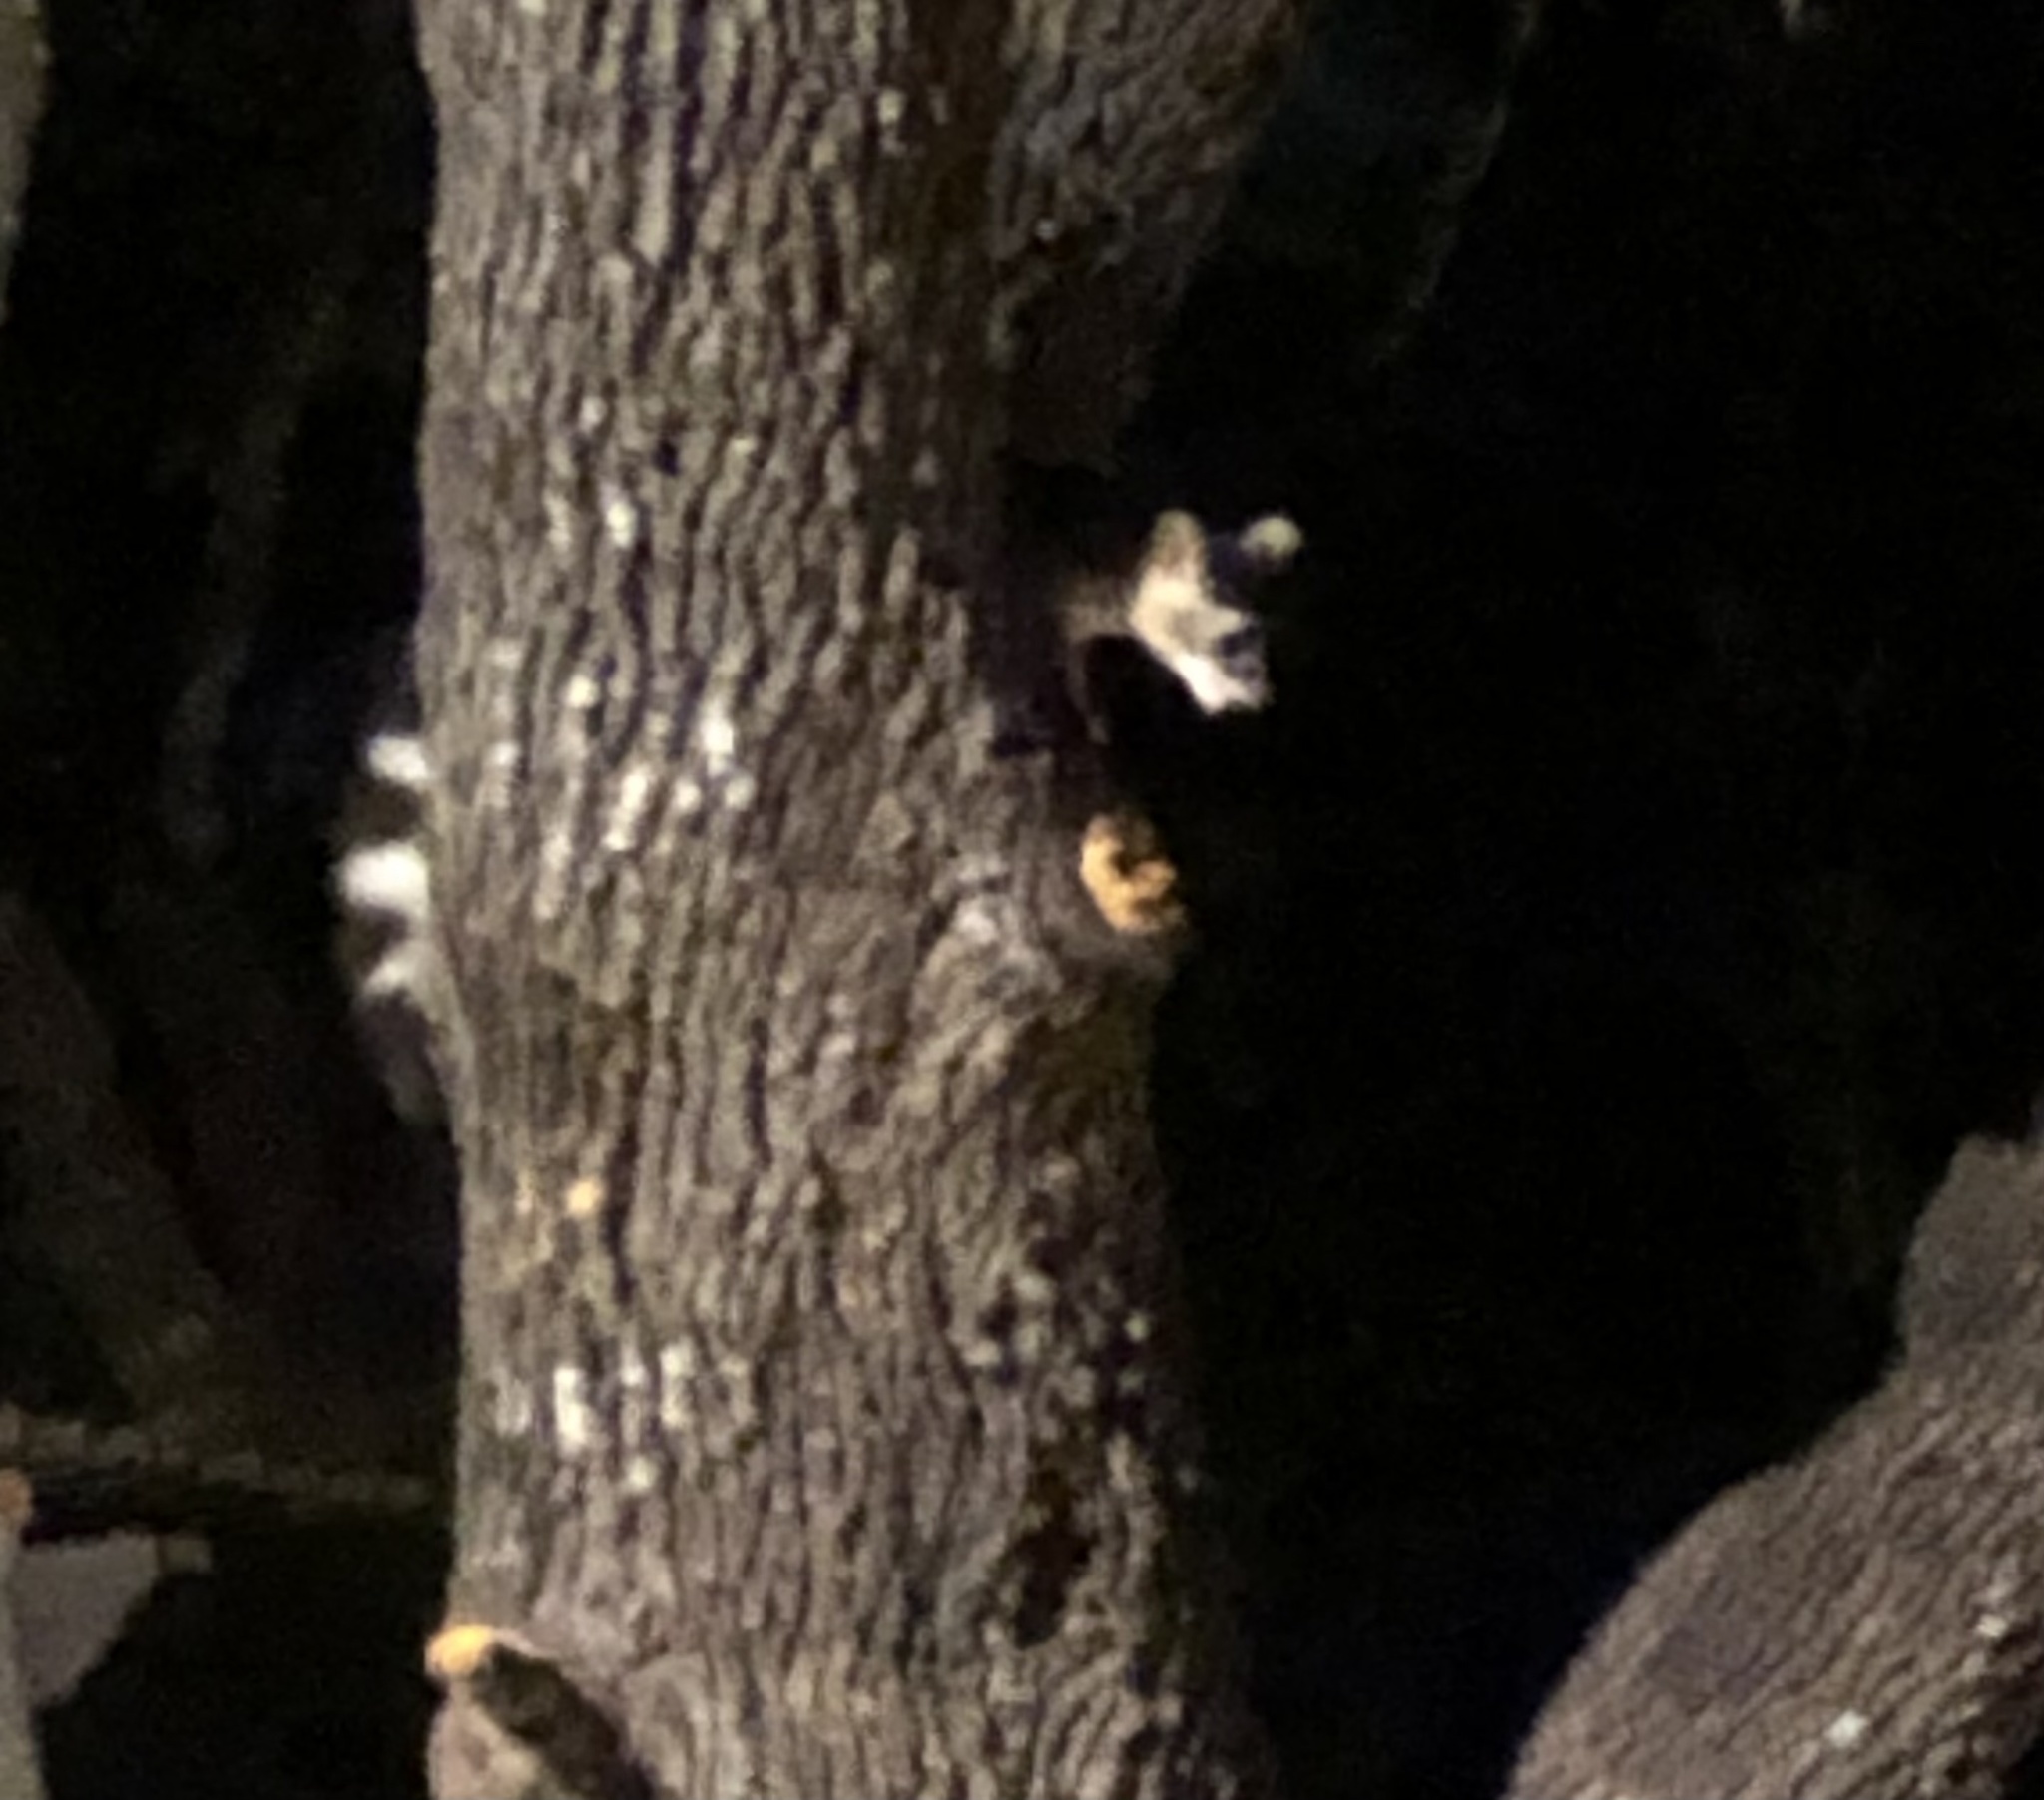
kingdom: Animalia
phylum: Chordata
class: Mammalia
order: Carnivora
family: Procyonidae
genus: Bassariscus
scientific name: Bassariscus astutus
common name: Ringtail
